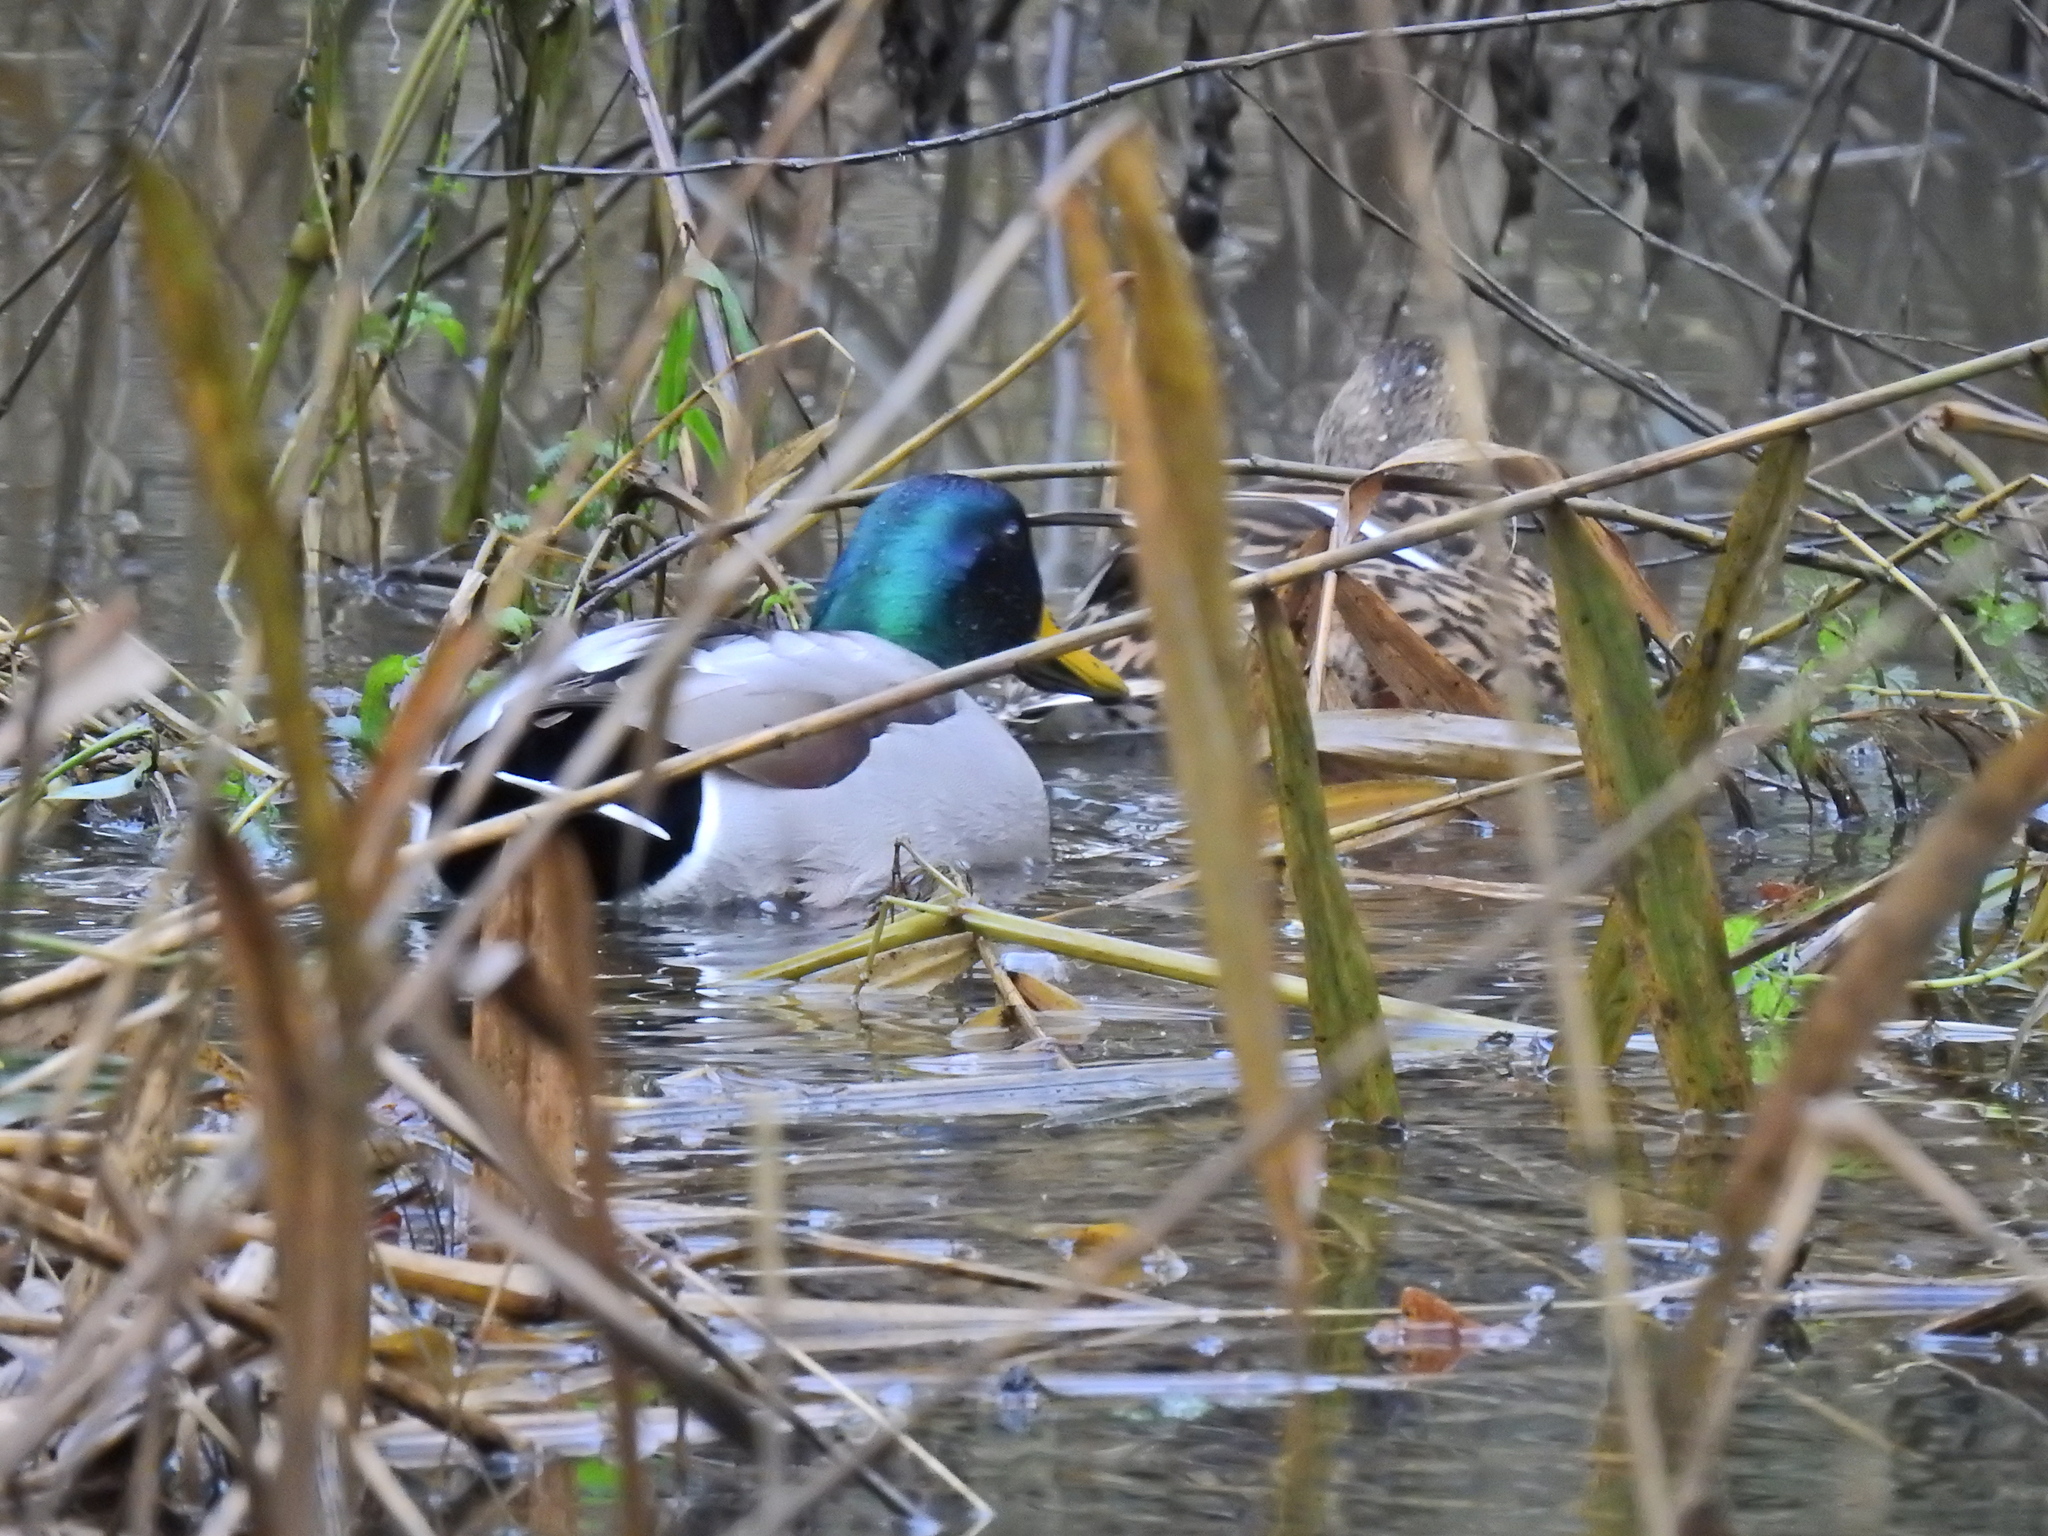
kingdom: Animalia
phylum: Chordata
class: Aves
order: Anseriformes
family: Anatidae
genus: Anas
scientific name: Anas platyrhynchos
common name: Mallard
